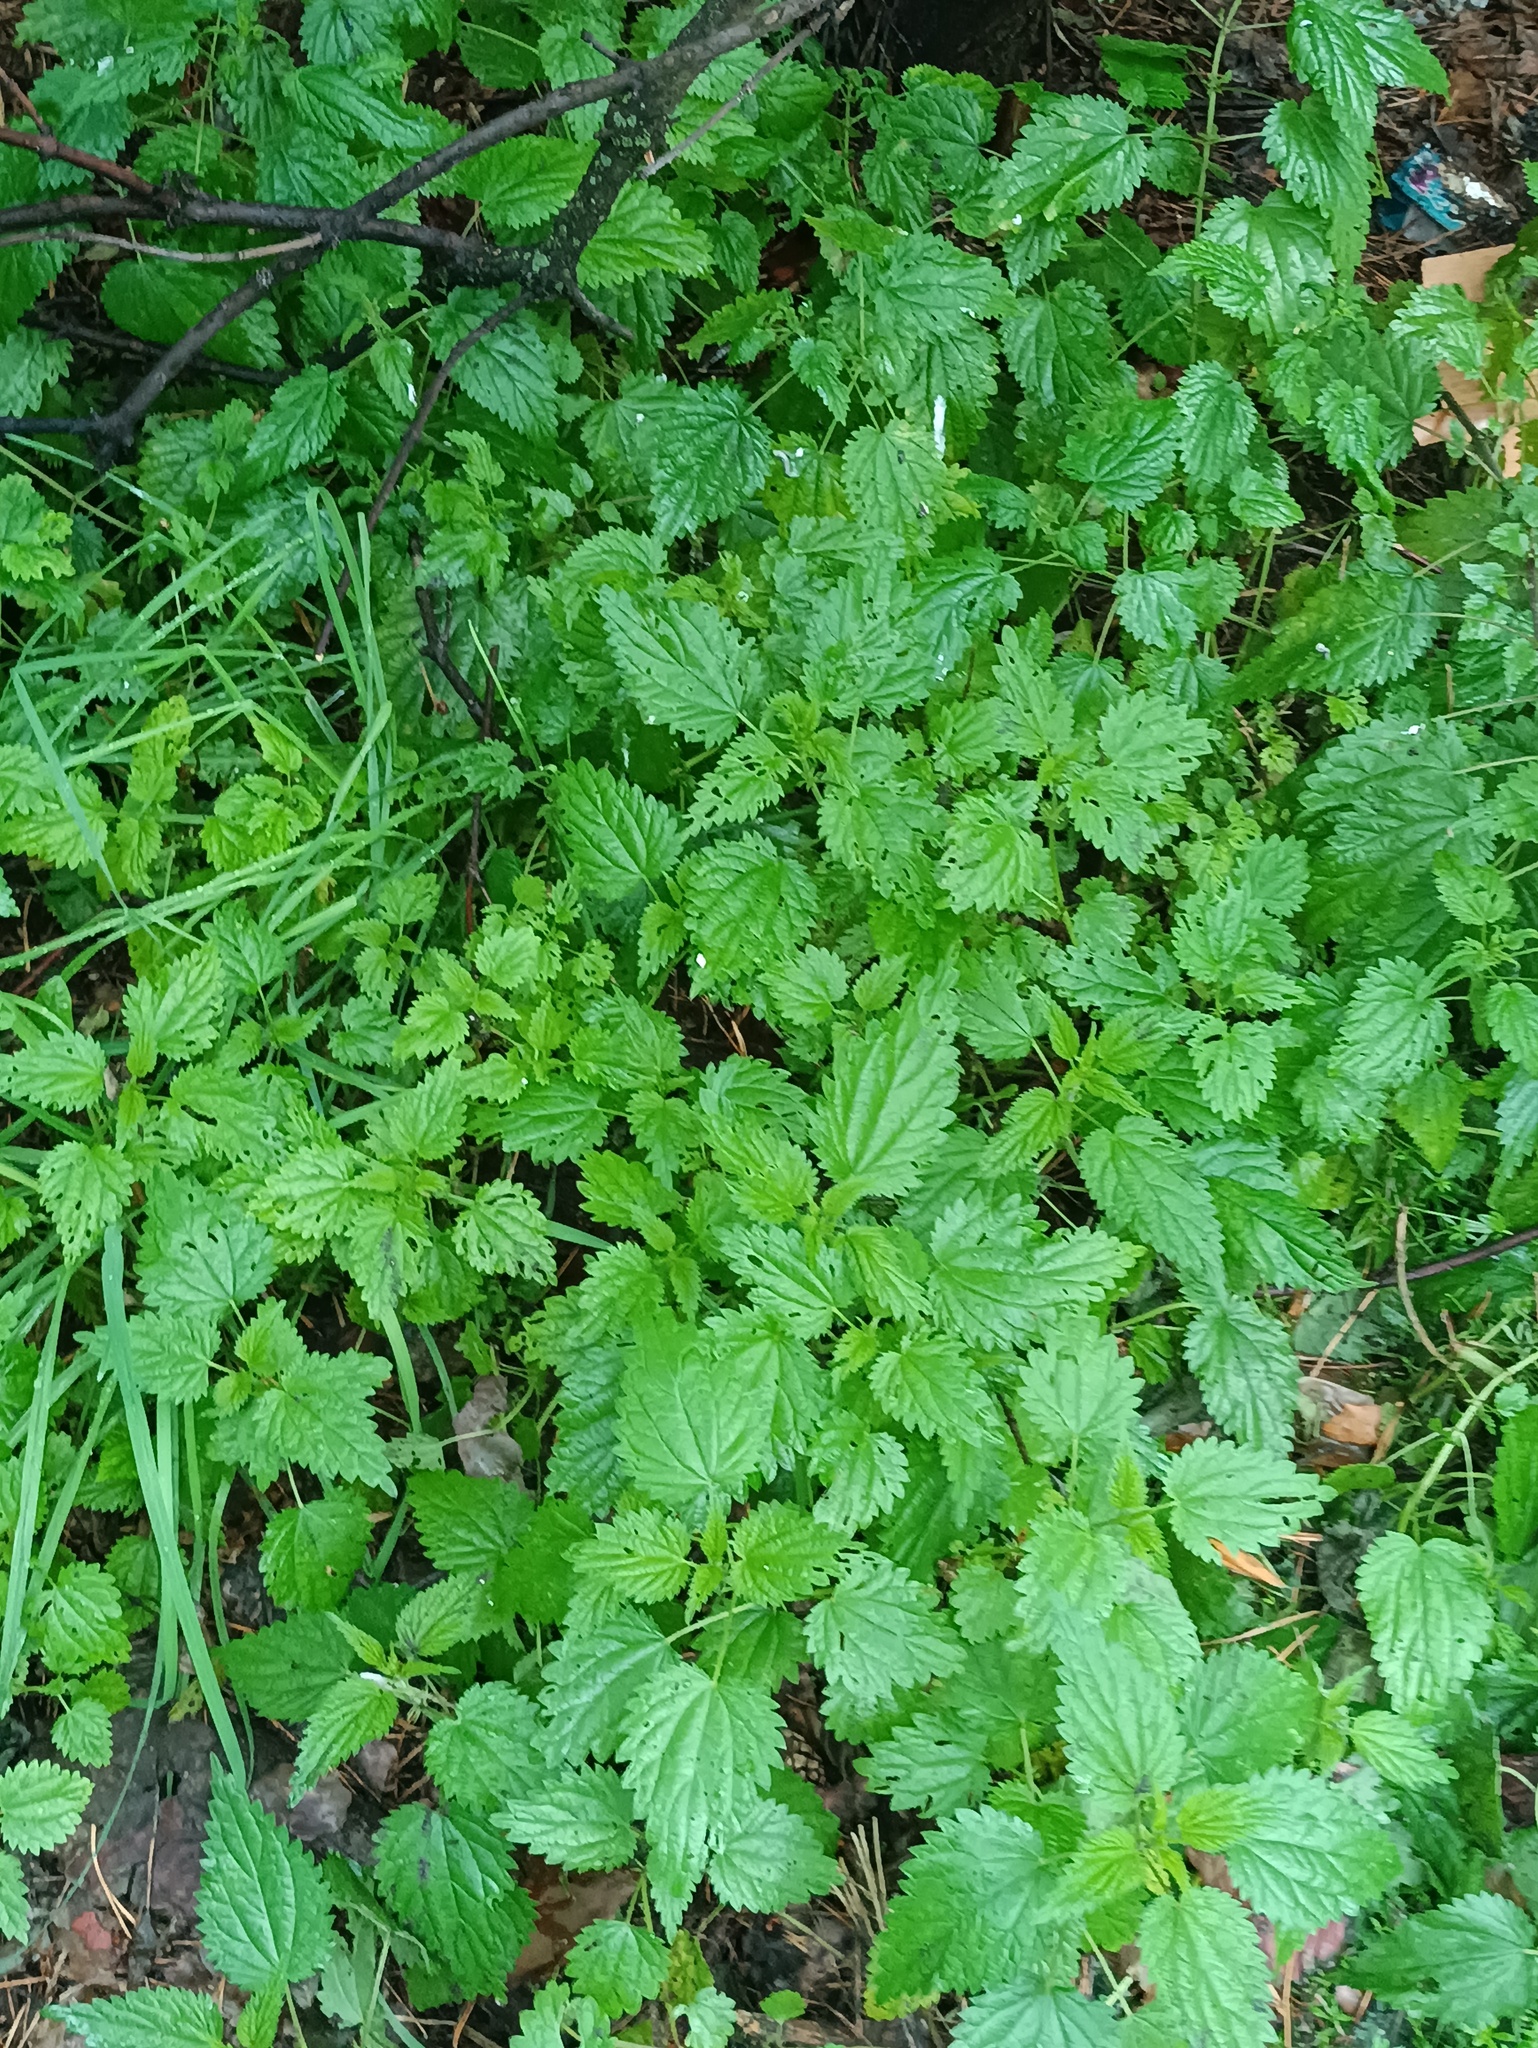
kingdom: Plantae
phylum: Tracheophyta
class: Magnoliopsida
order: Rosales
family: Urticaceae
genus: Urtica
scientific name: Urtica dioica
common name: Common nettle
